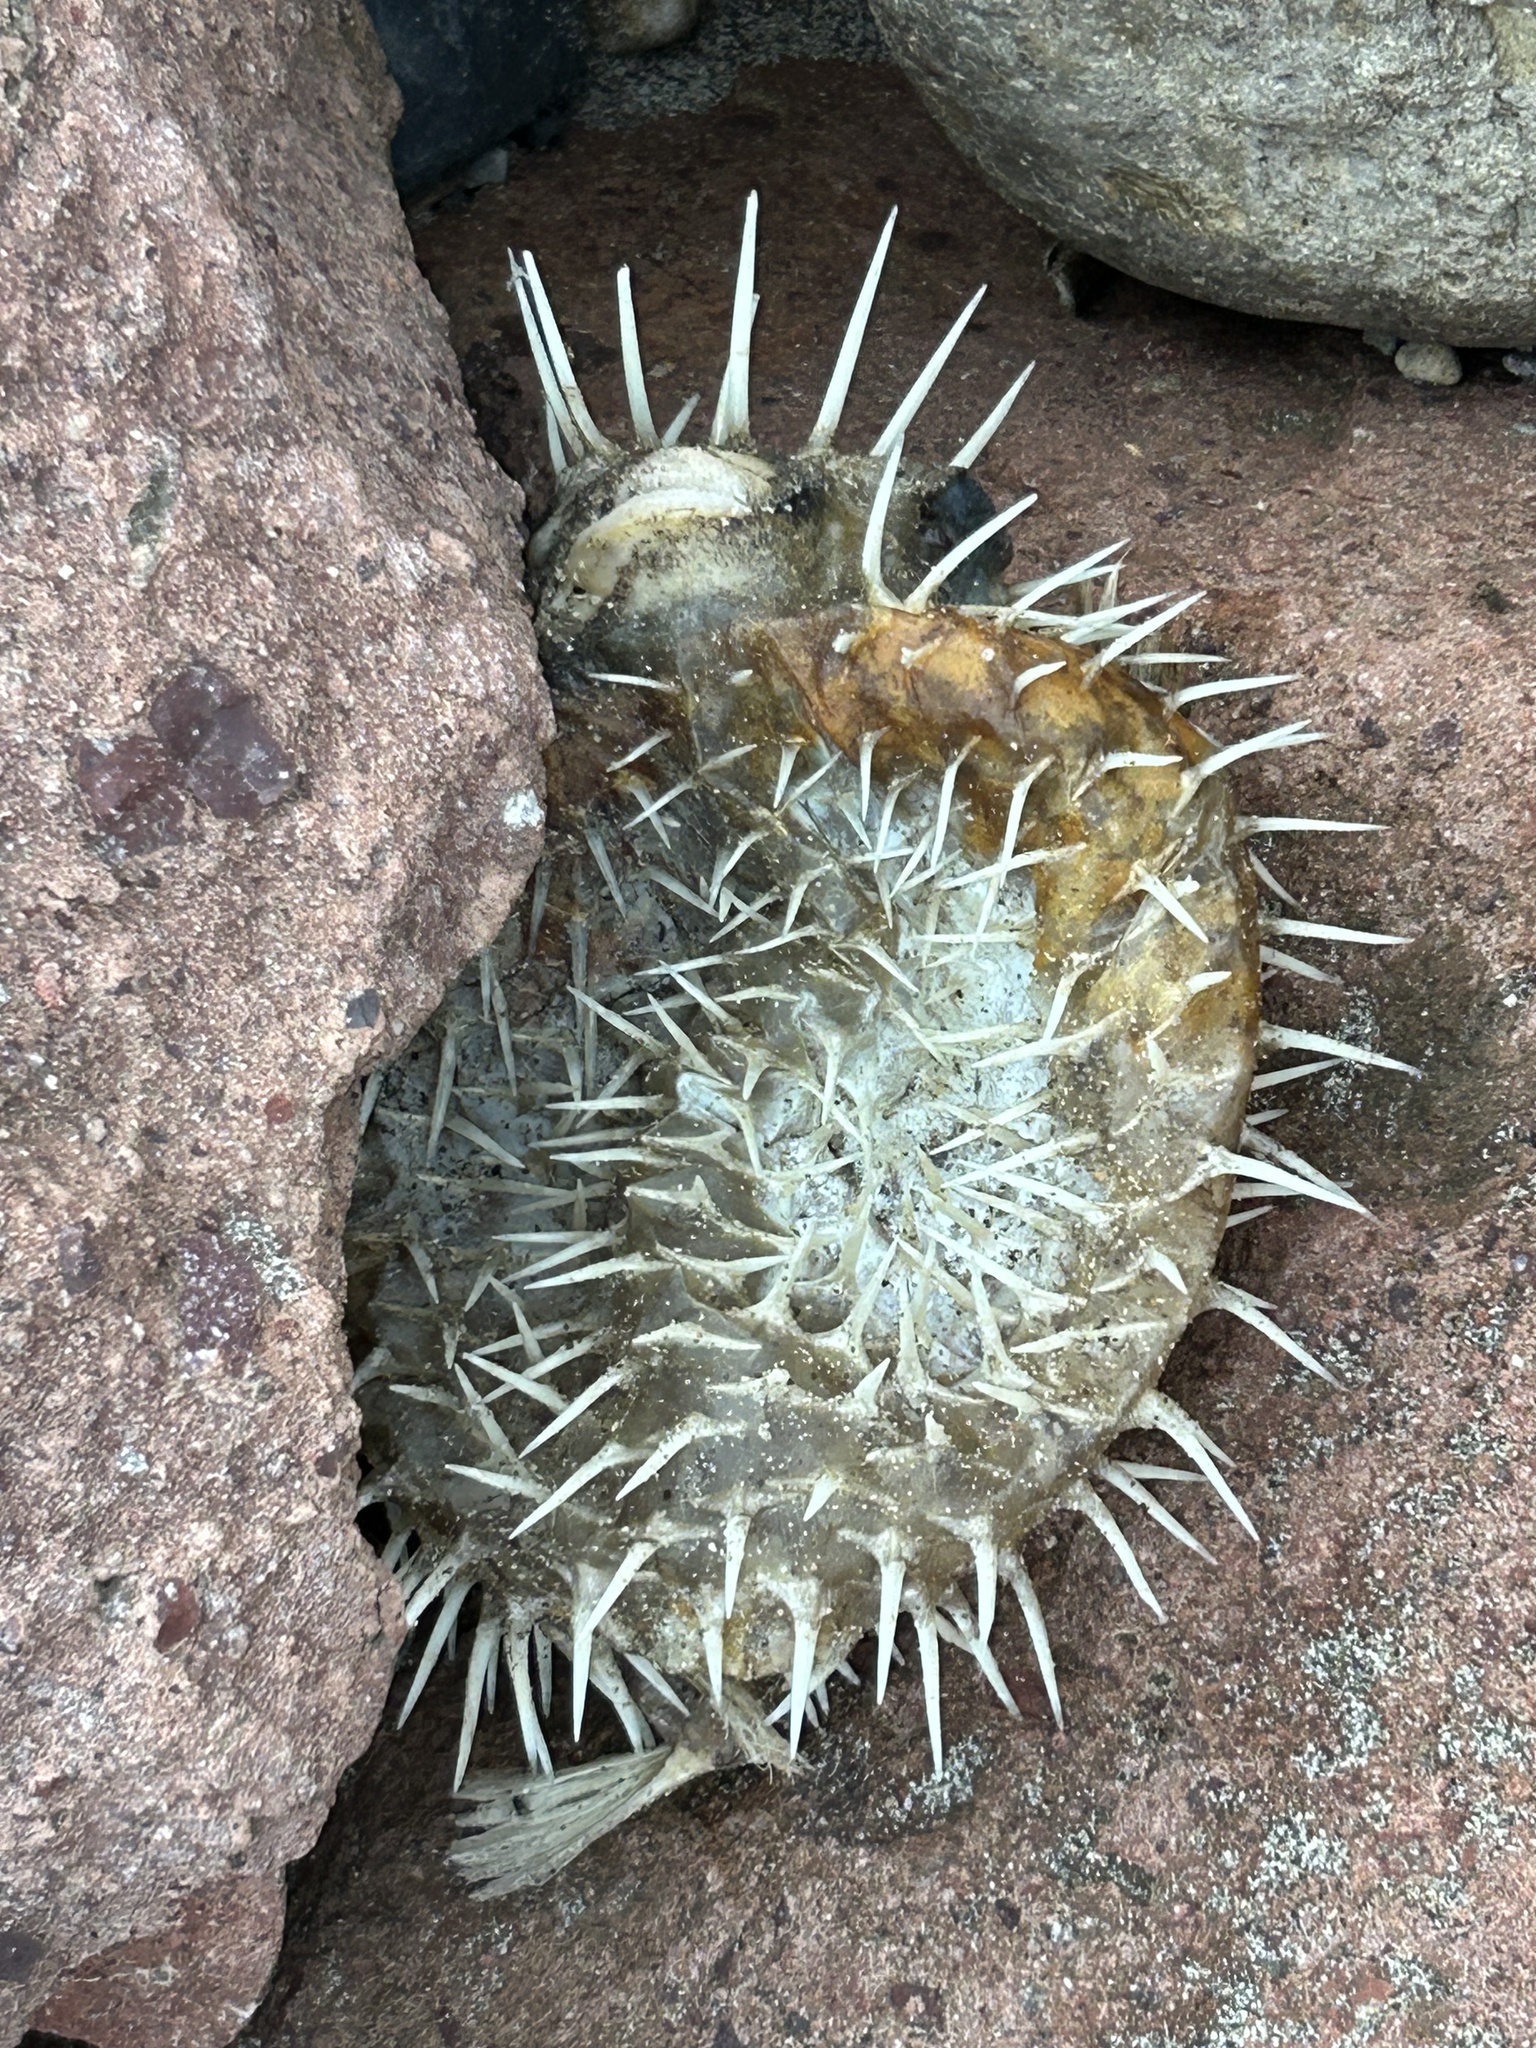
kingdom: Animalia
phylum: Chordata
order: Tetraodontiformes
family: Diodontidae
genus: Diodon
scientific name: Diodon holocanthus
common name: Balloonfish
